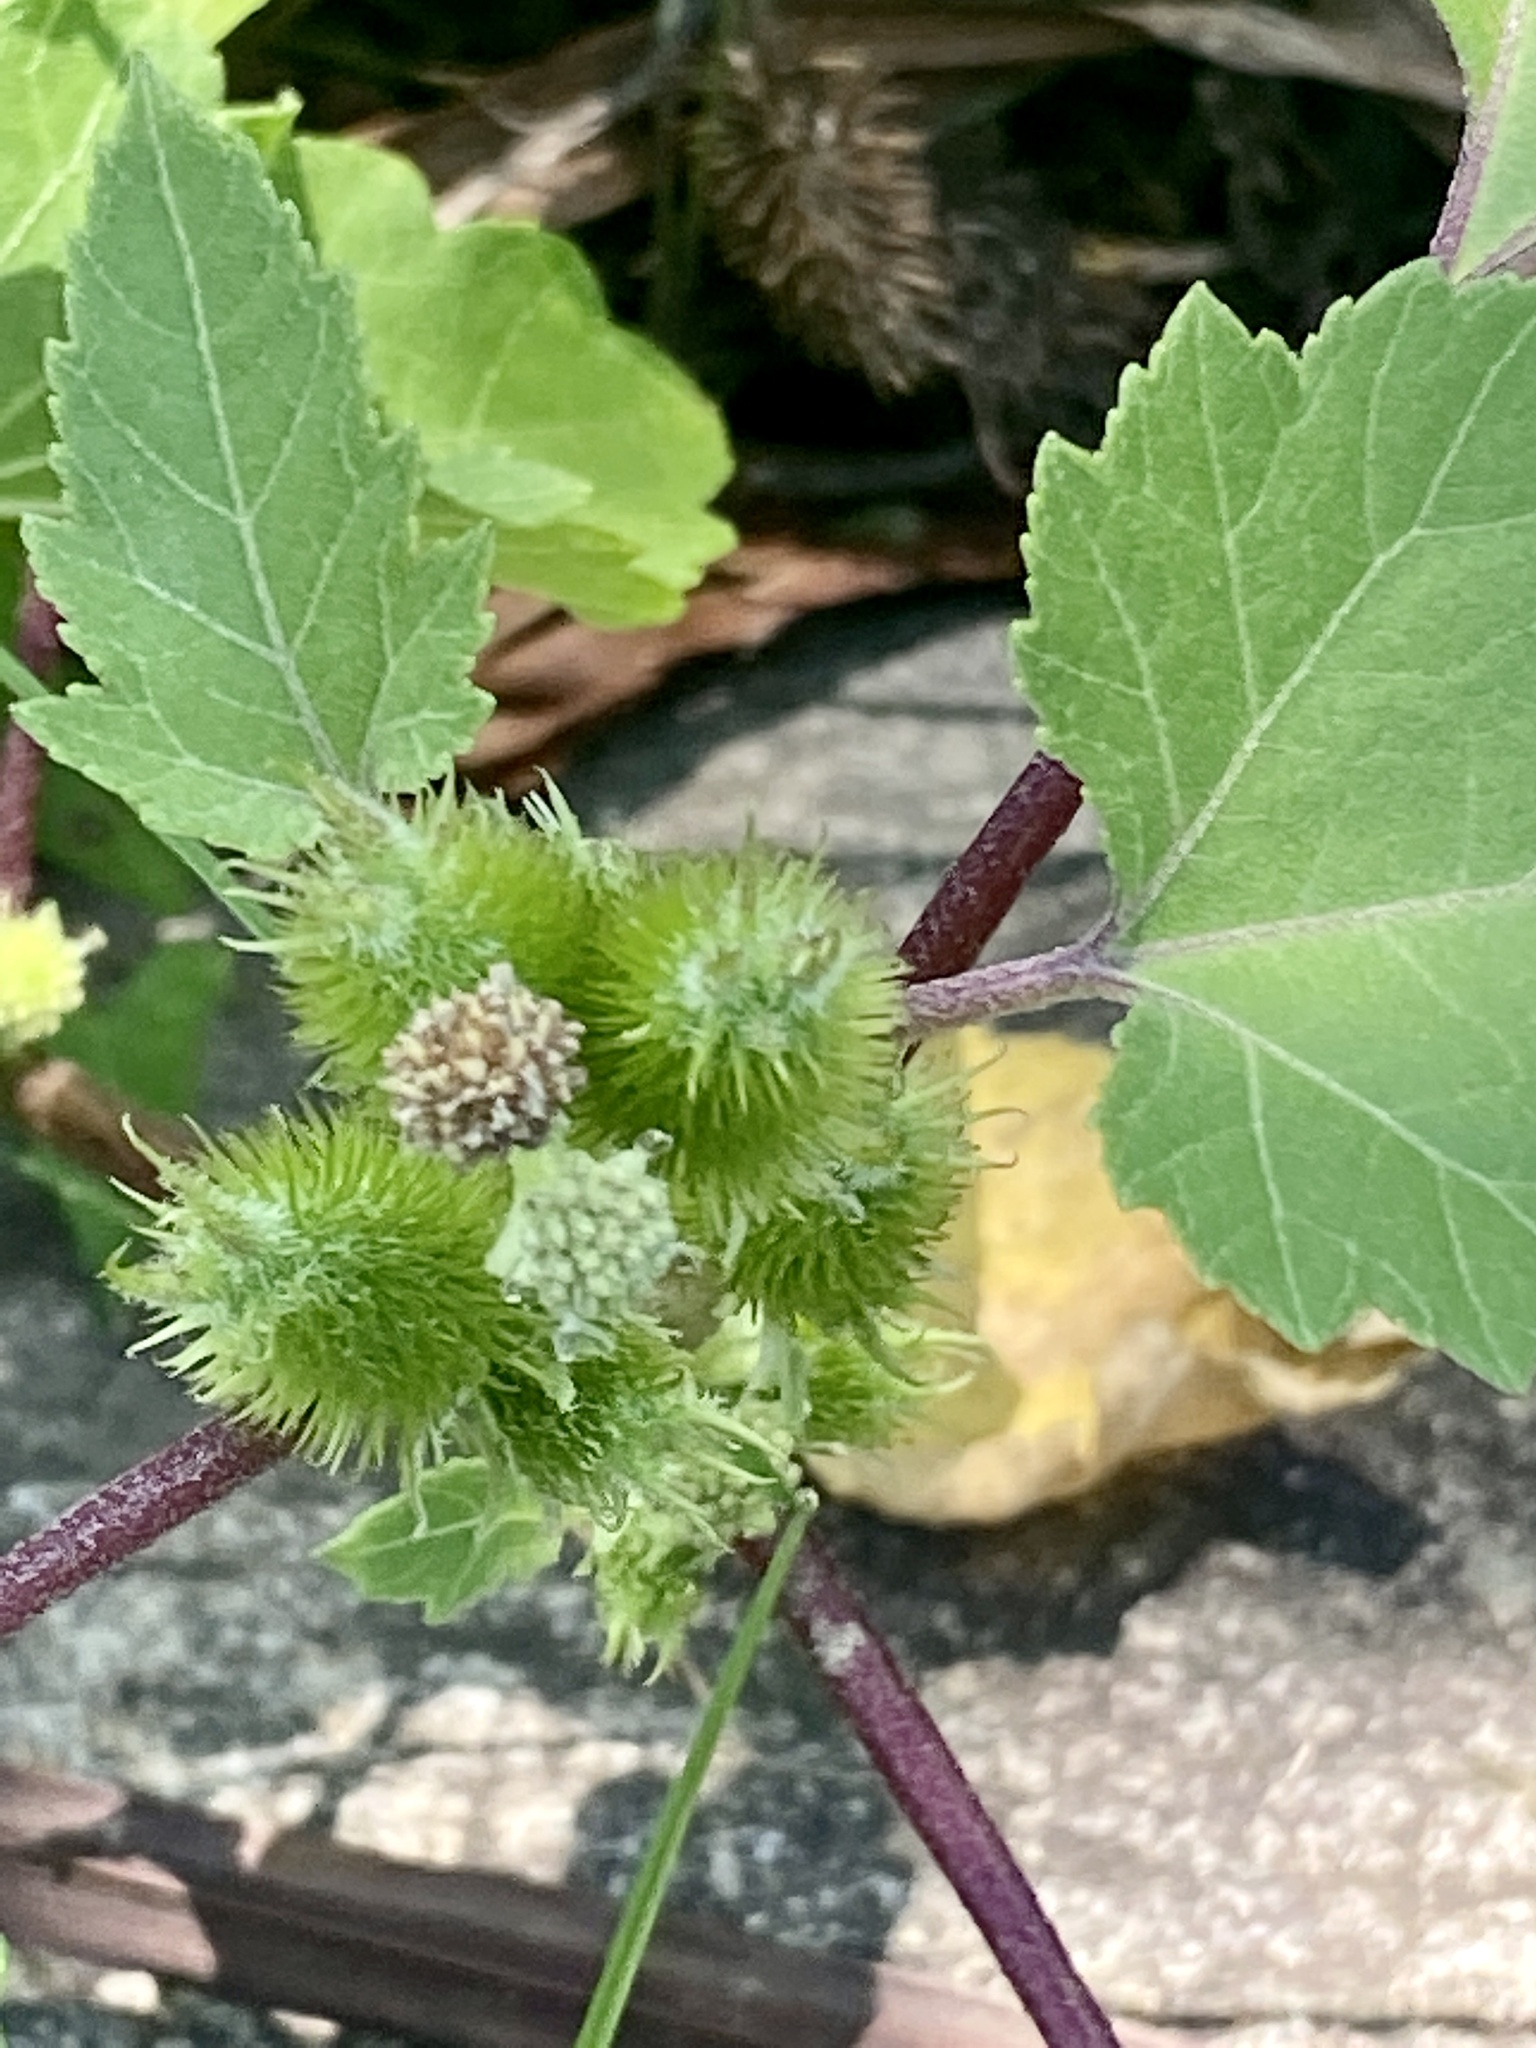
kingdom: Plantae
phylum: Tracheophyta
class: Magnoliopsida
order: Asterales
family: Asteraceae
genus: Xanthium
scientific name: Xanthium strumarium
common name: Rough cocklebur
